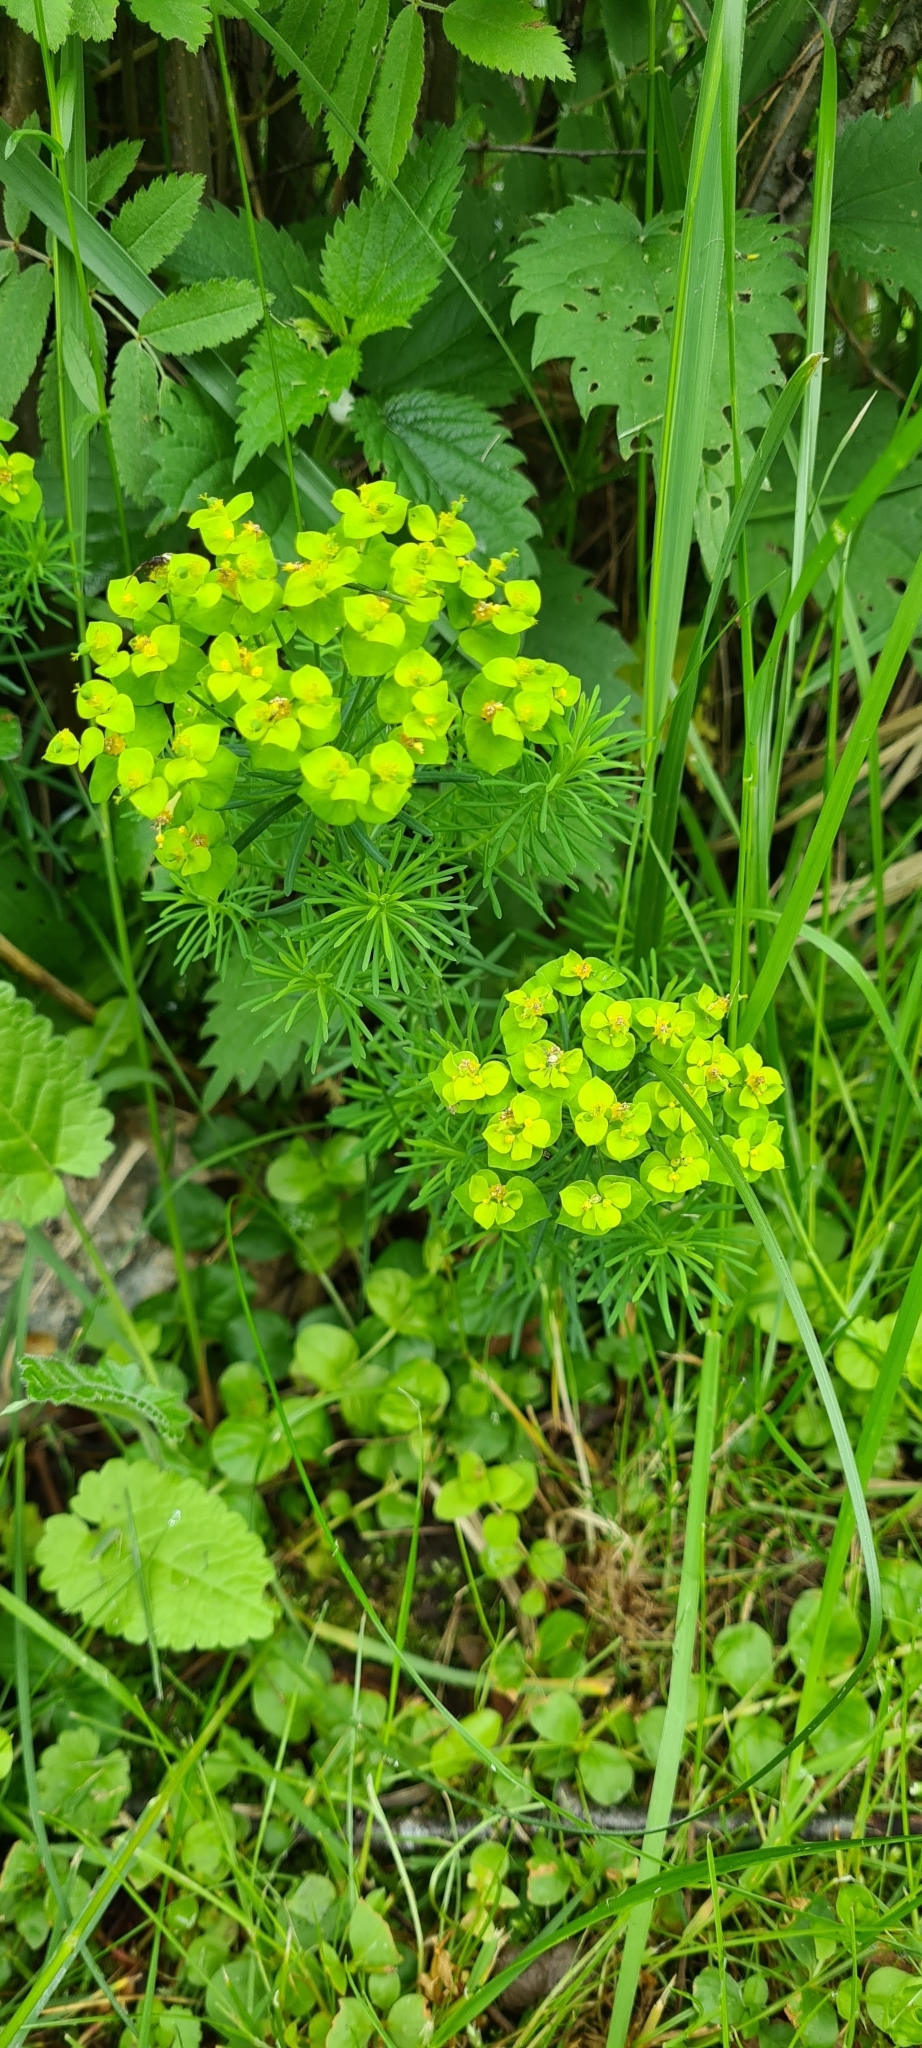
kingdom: Plantae
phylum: Tracheophyta
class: Magnoliopsida
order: Malpighiales
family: Euphorbiaceae
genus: Euphorbia
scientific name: Euphorbia cyparissias
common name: Cypress spurge
